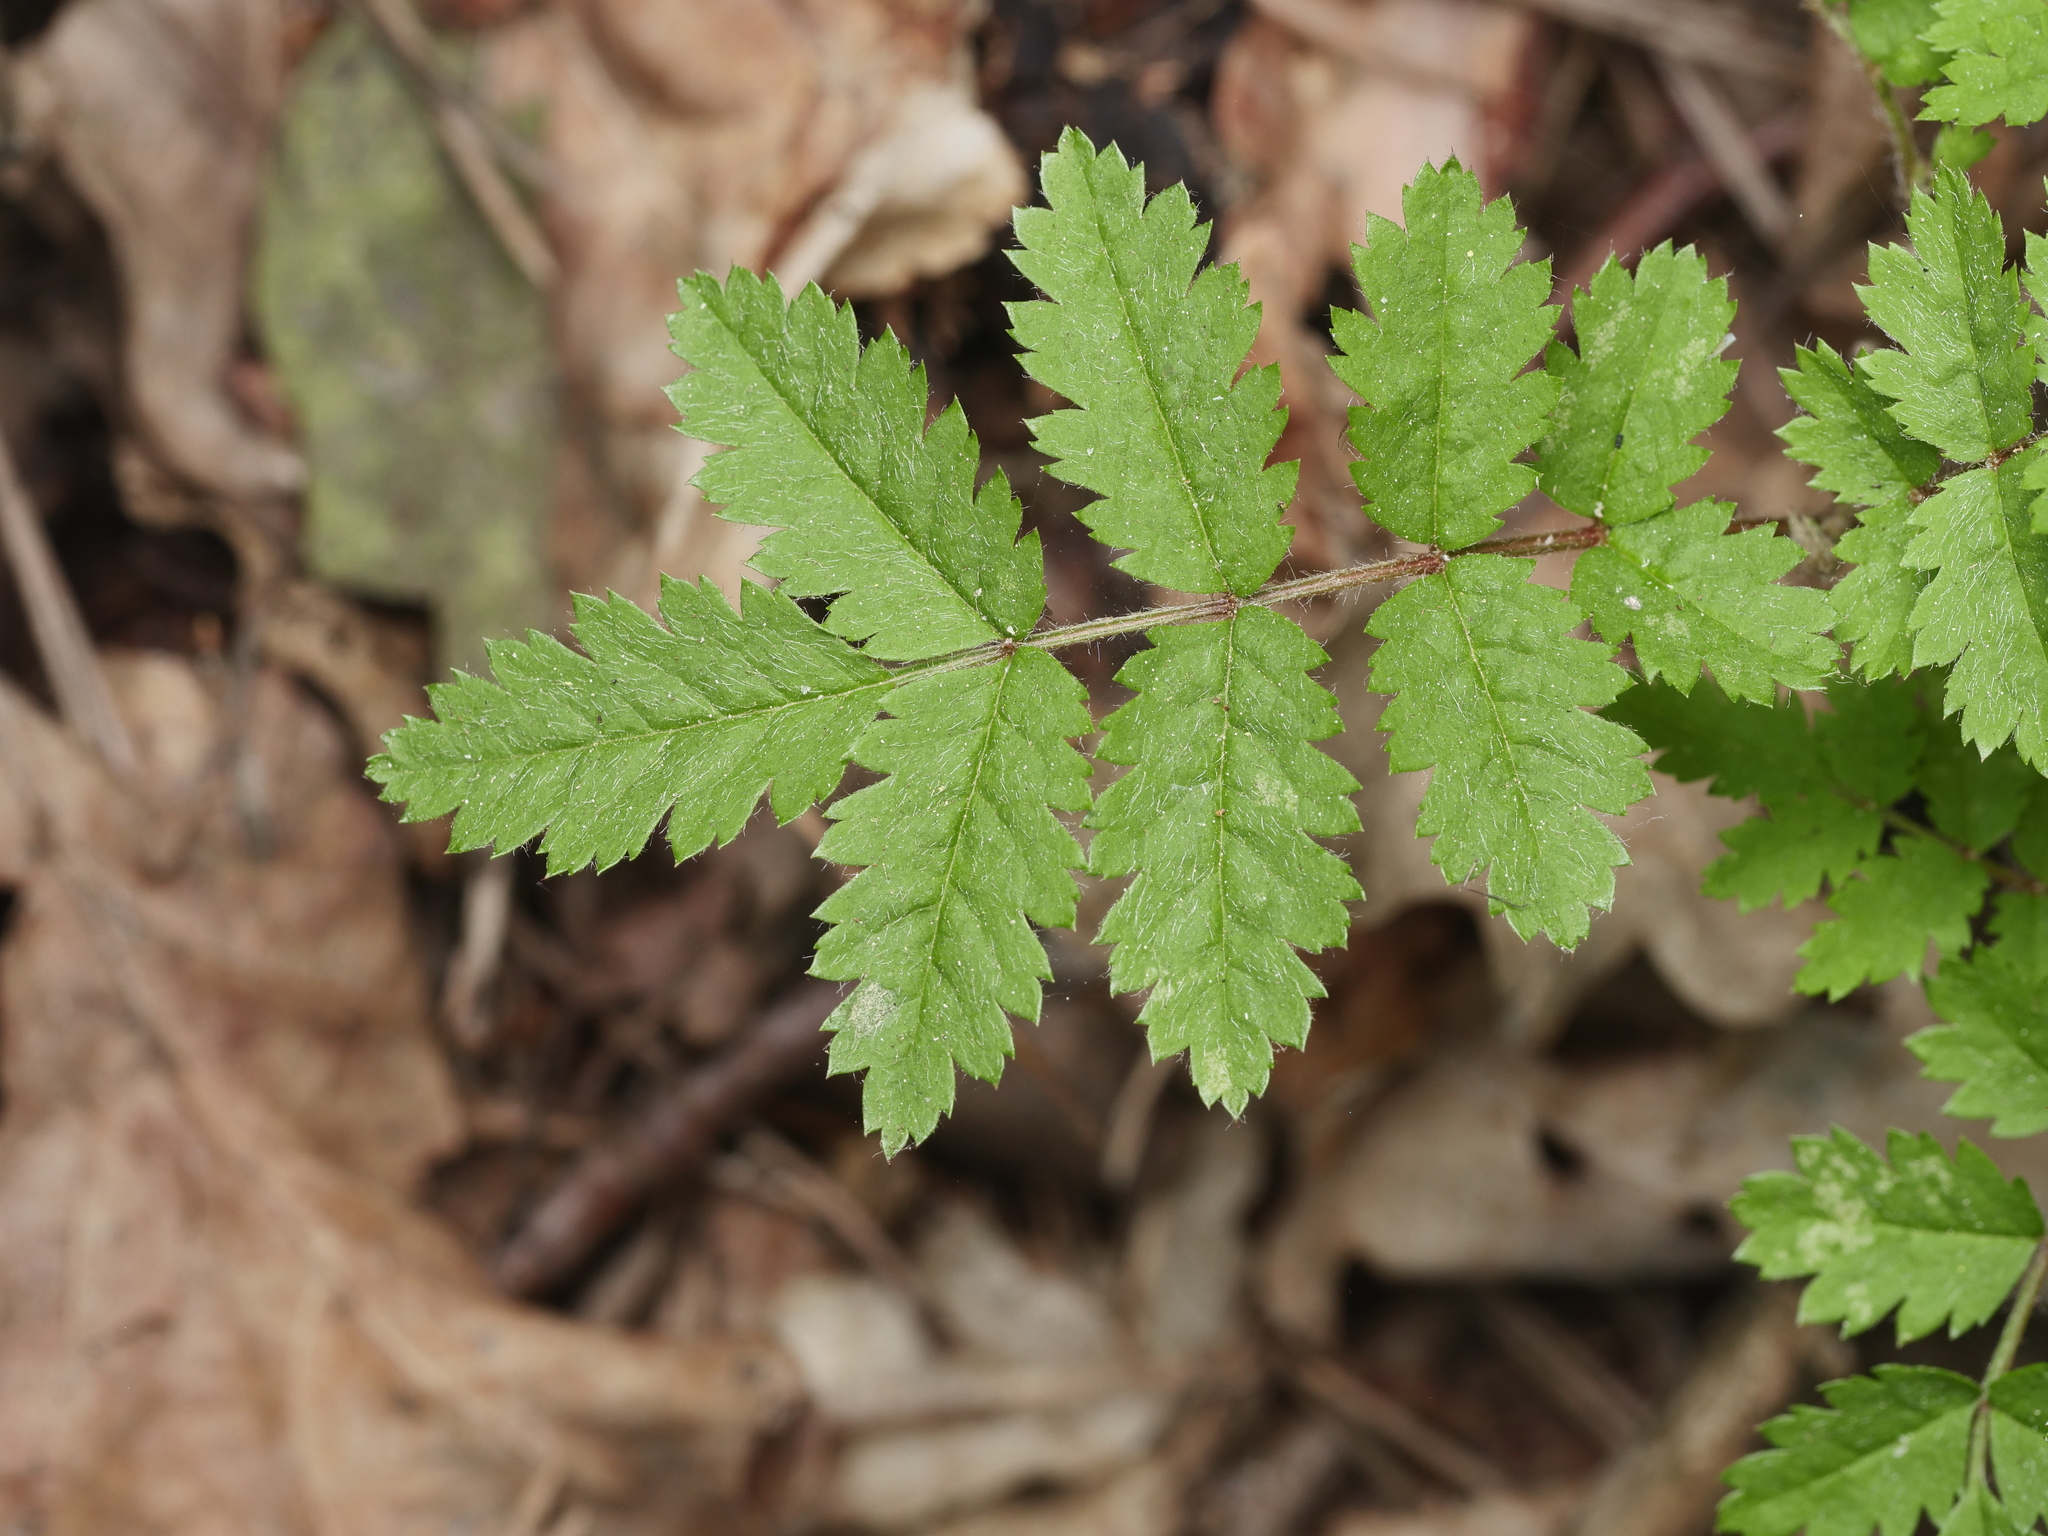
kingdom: Plantae
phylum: Tracheophyta
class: Magnoliopsida
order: Rosales
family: Rosaceae
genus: Sorbus
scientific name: Sorbus aucuparia
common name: Rowan
